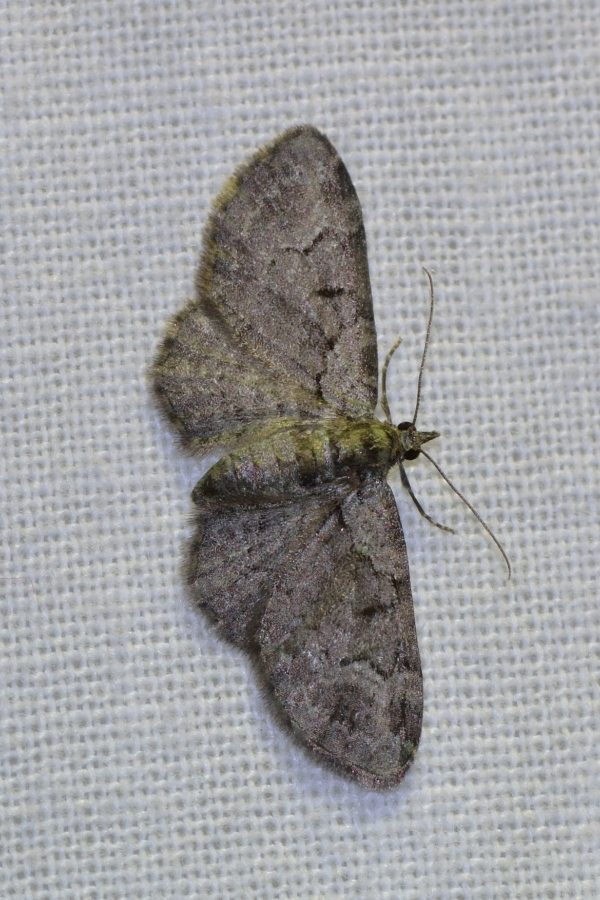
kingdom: Animalia
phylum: Arthropoda
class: Insecta
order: Lepidoptera
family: Geometridae
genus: Pasiphila
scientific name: Pasiphila rectangulata
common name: Green pug
